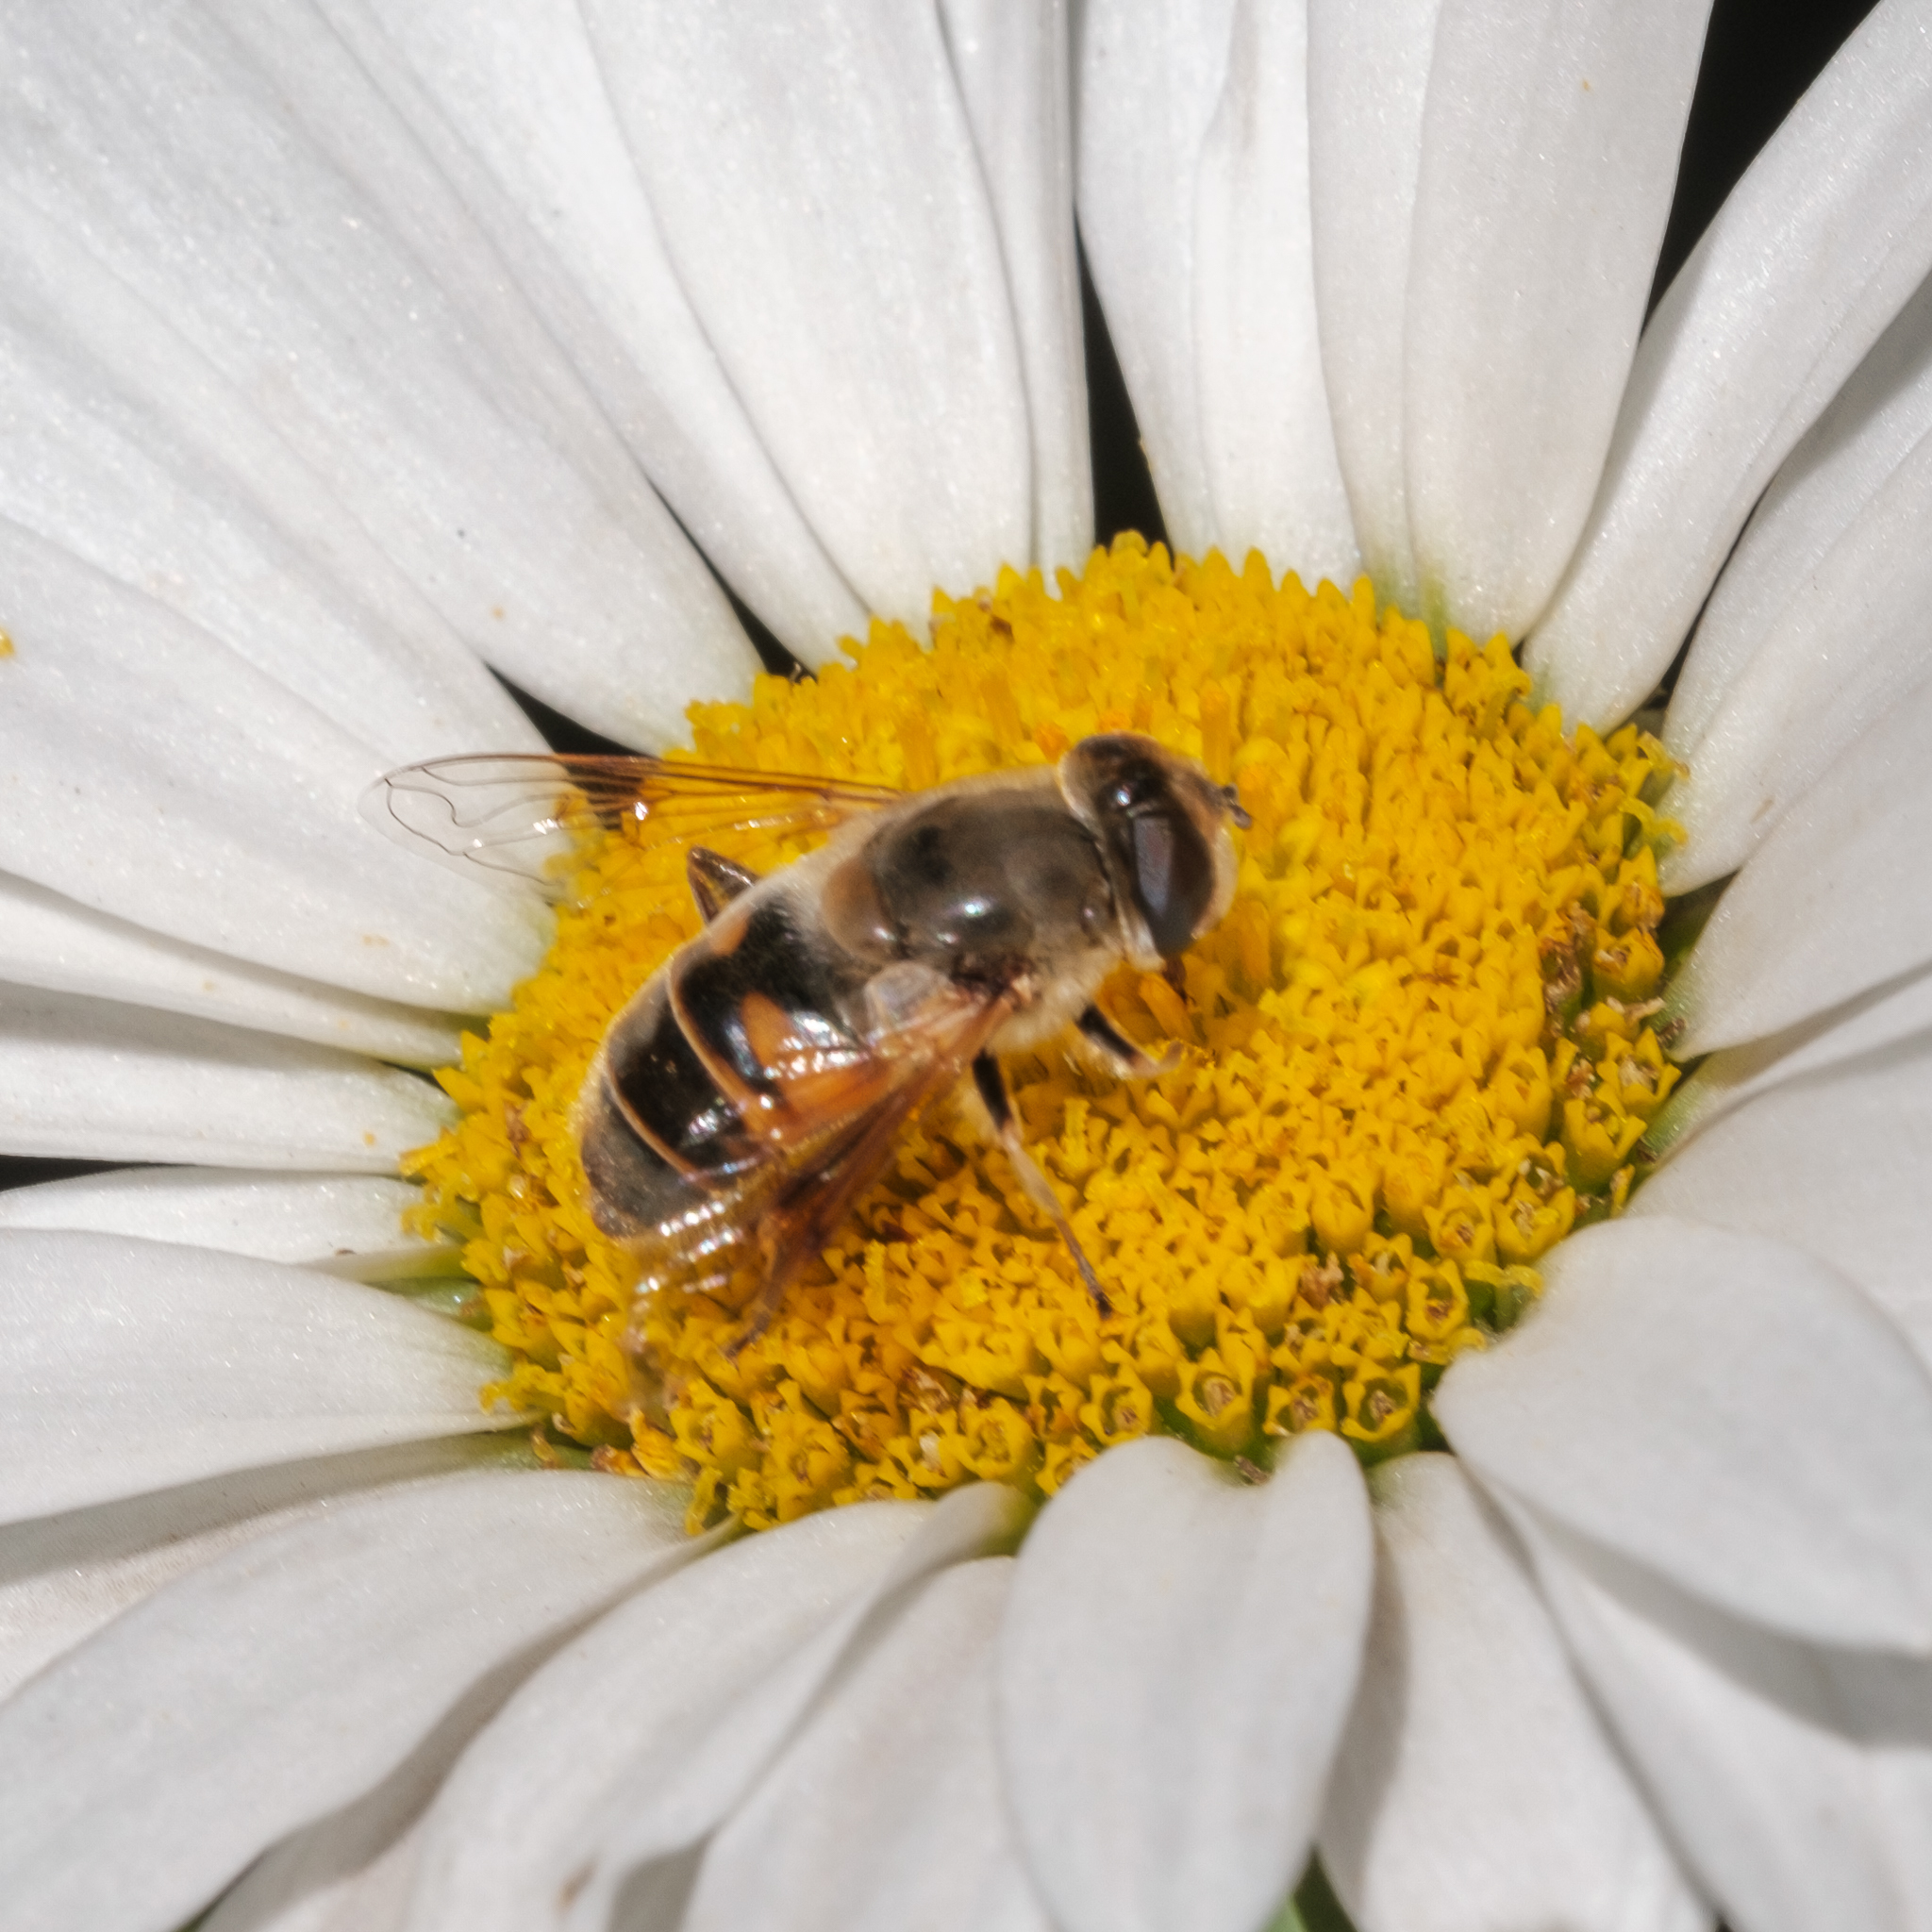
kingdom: Animalia
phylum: Arthropoda
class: Insecta
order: Diptera
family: Syrphidae
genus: Eristalis
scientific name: Eristalis tenax
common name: Drone fly
